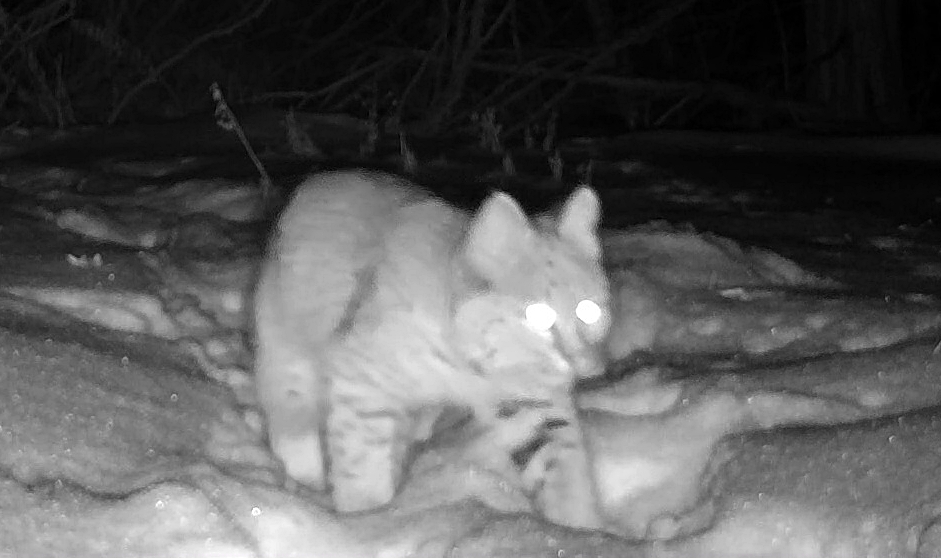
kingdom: Animalia
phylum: Chordata
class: Mammalia
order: Carnivora
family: Felidae
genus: Lynx
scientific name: Lynx rufus
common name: Bobcat
